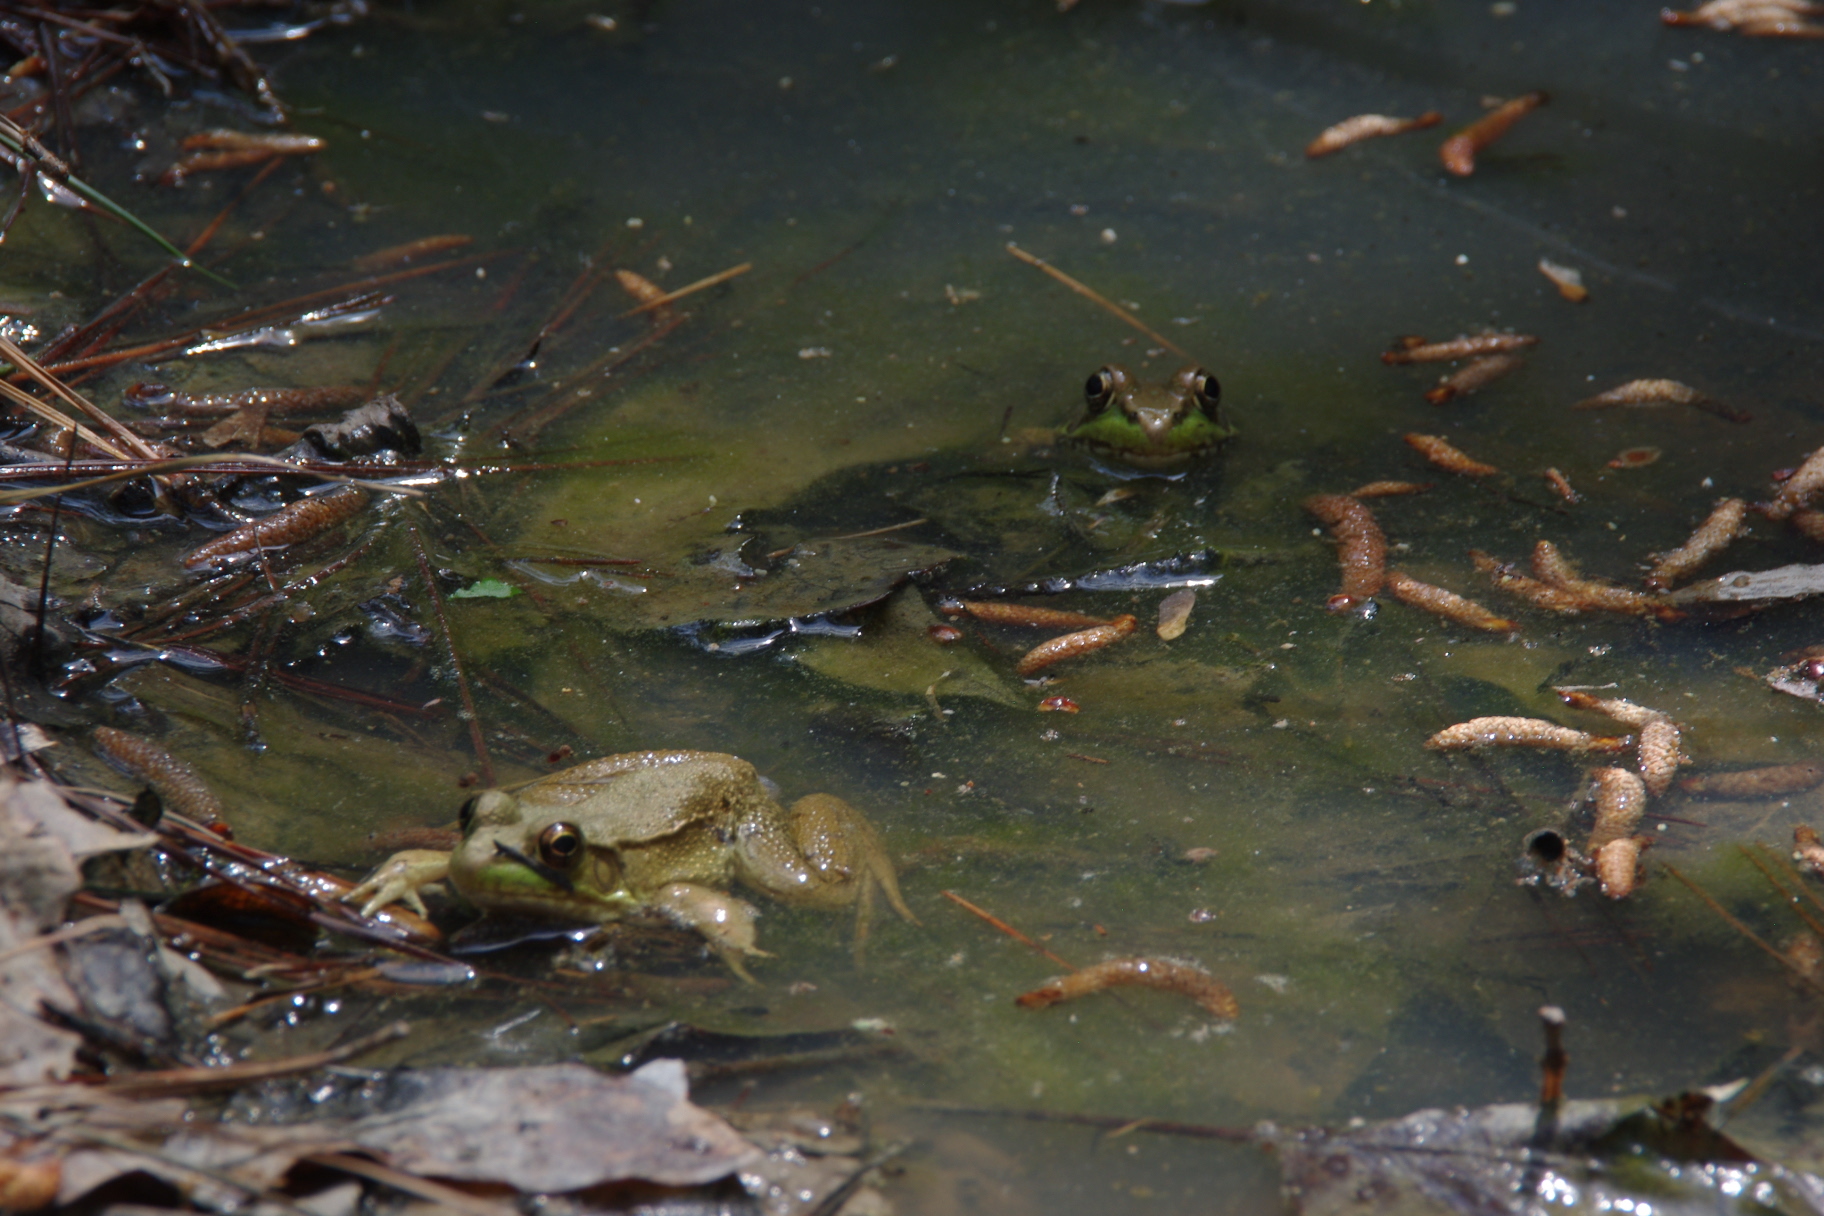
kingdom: Animalia
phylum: Chordata
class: Amphibia
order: Anura
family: Ranidae
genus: Lithobates
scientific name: Lithobates clamitans
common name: Green frog
